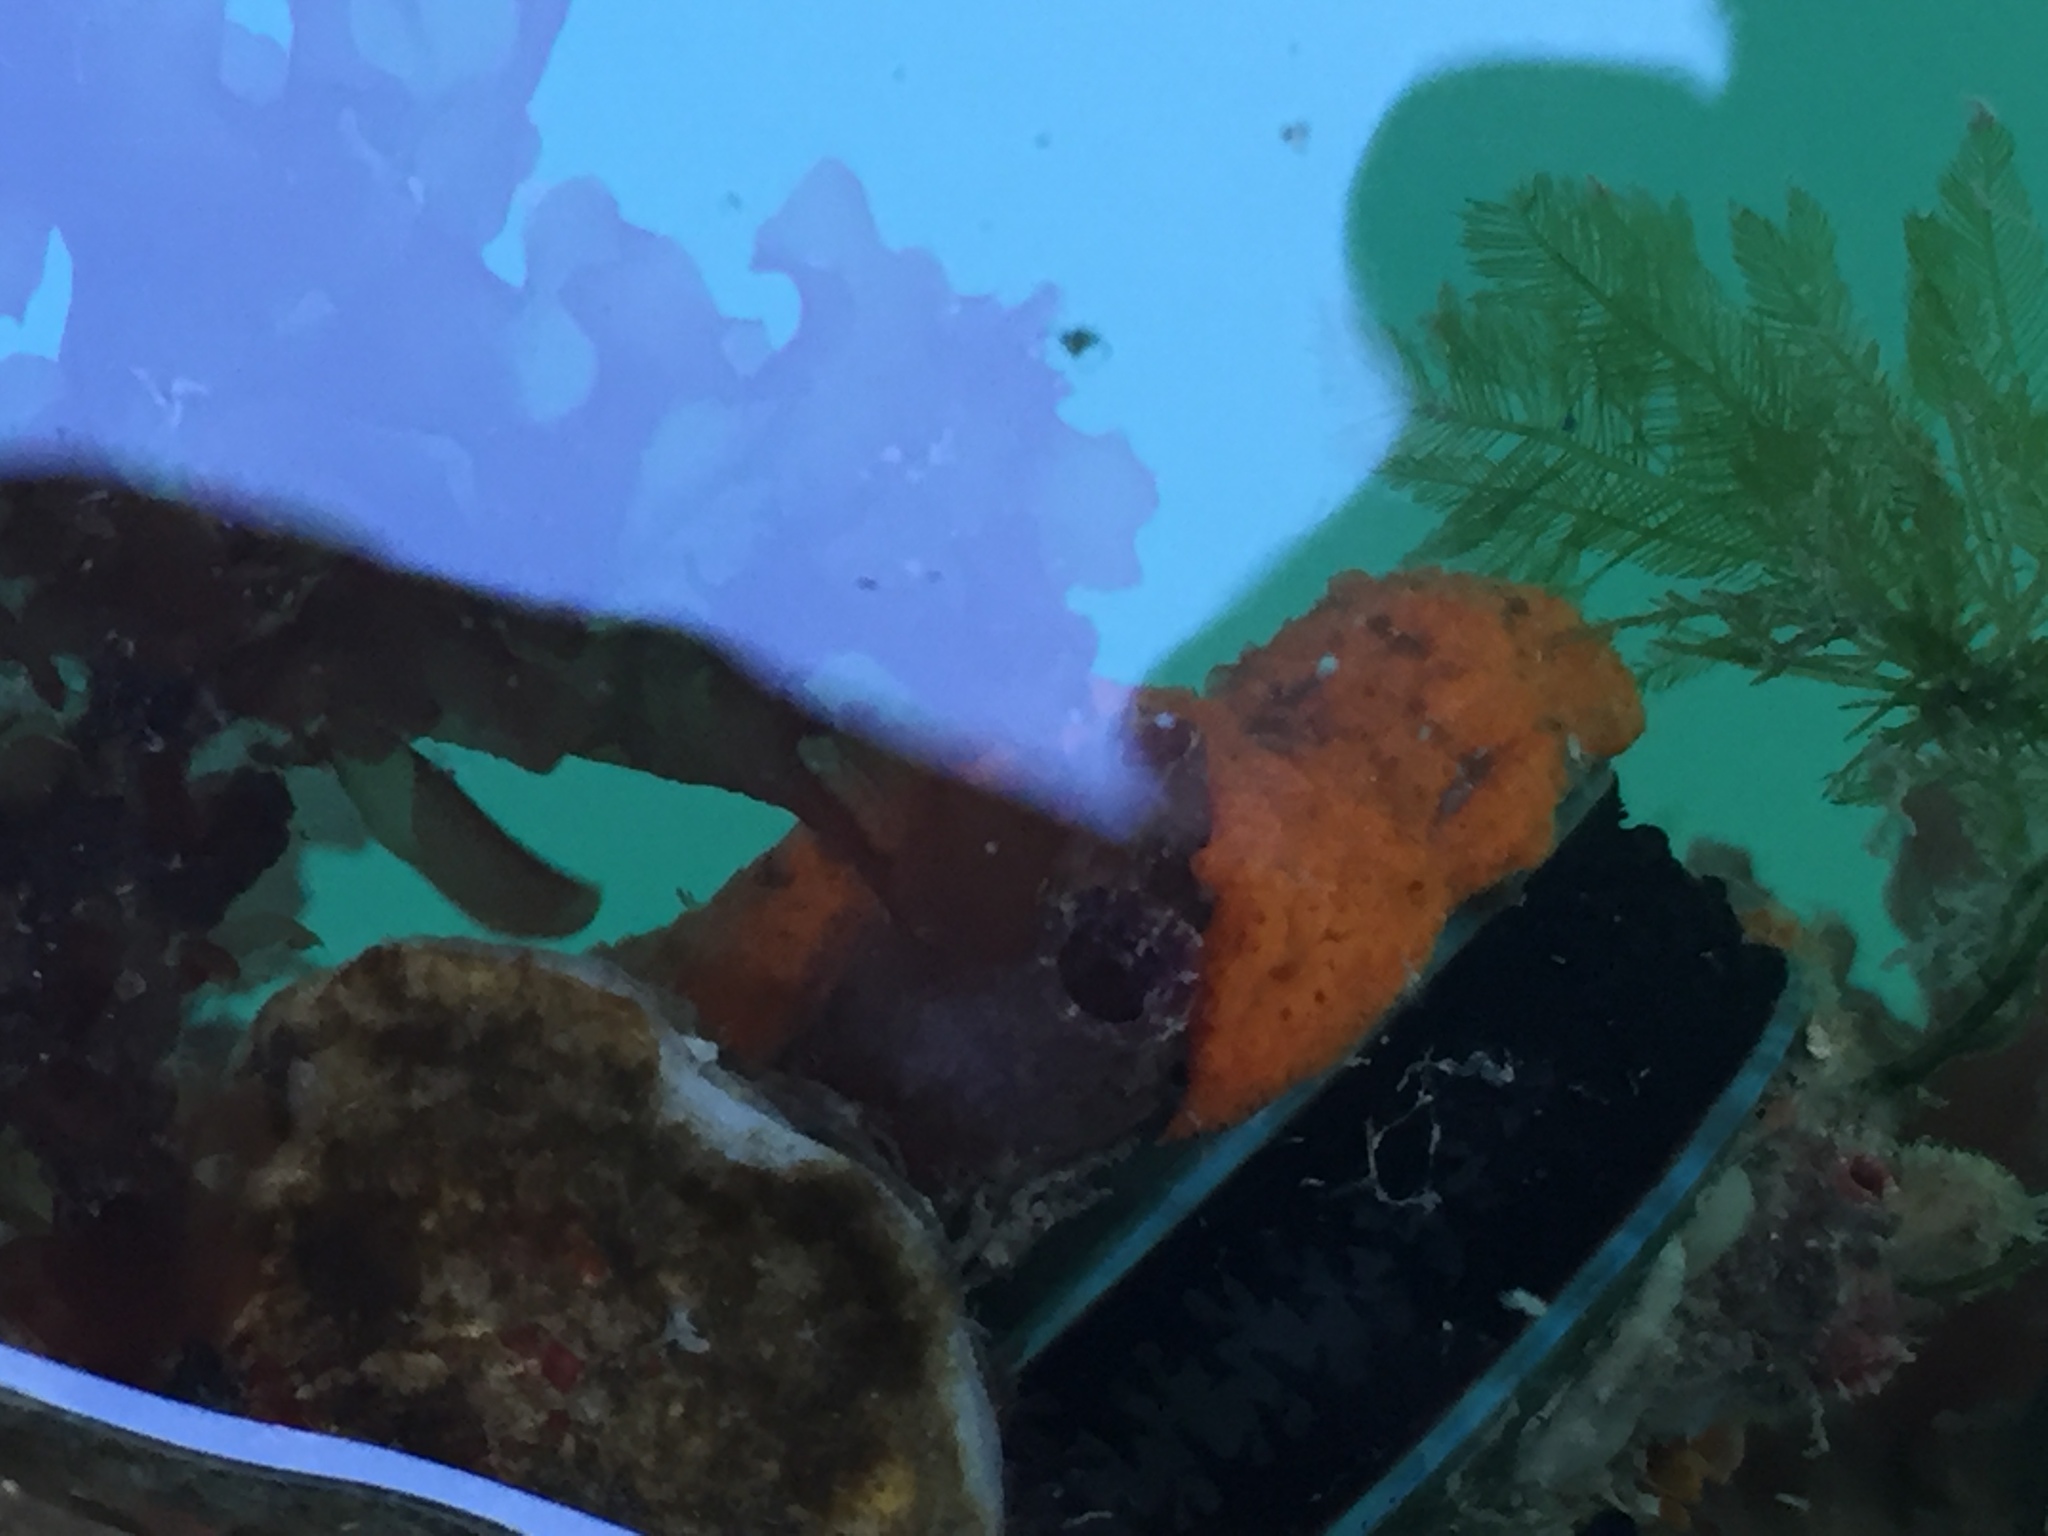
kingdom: Animalia
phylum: Mollusca
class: Bivalvia
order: Mytilida
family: Mytilidae
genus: Perna
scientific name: Perna canaliculus
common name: New zealand greenshelltm
